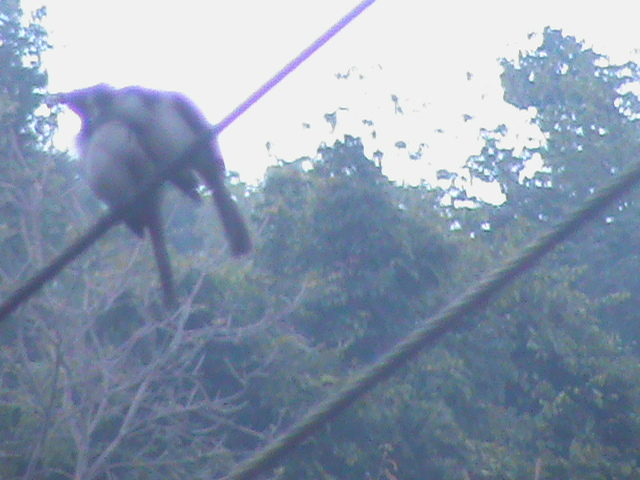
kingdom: Animalia
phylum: Chordata
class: Aves
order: Passeriformes
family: Pycnonotidae
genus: Pycnonotus
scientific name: Pycnonotus jocosus
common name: Red-whiskered bulbul
